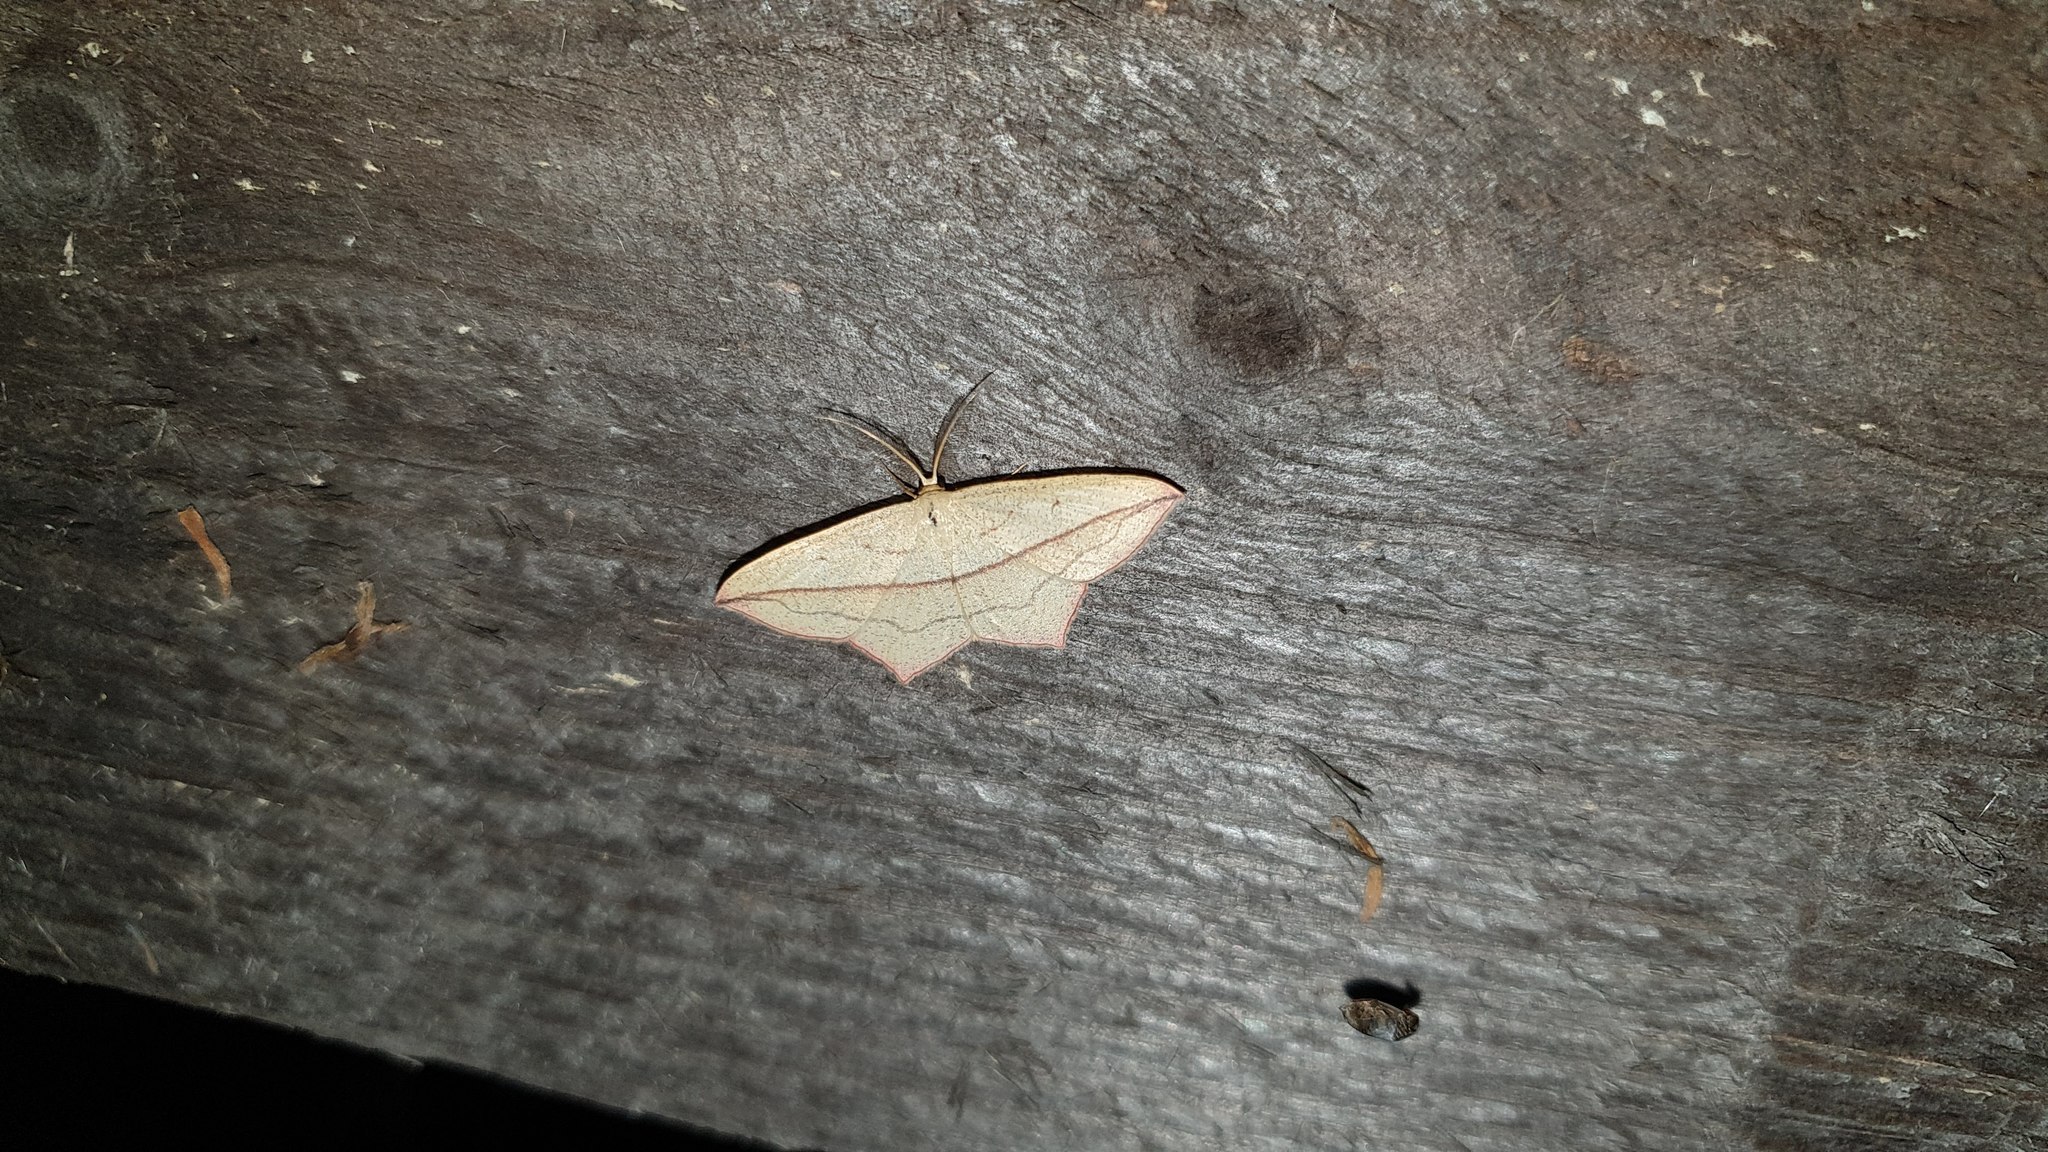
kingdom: Animalia
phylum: Arthropoda
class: Insecta
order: Lepidoptera
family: Geometridae
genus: Timandra
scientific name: Timandra comae
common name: Blood-vein
